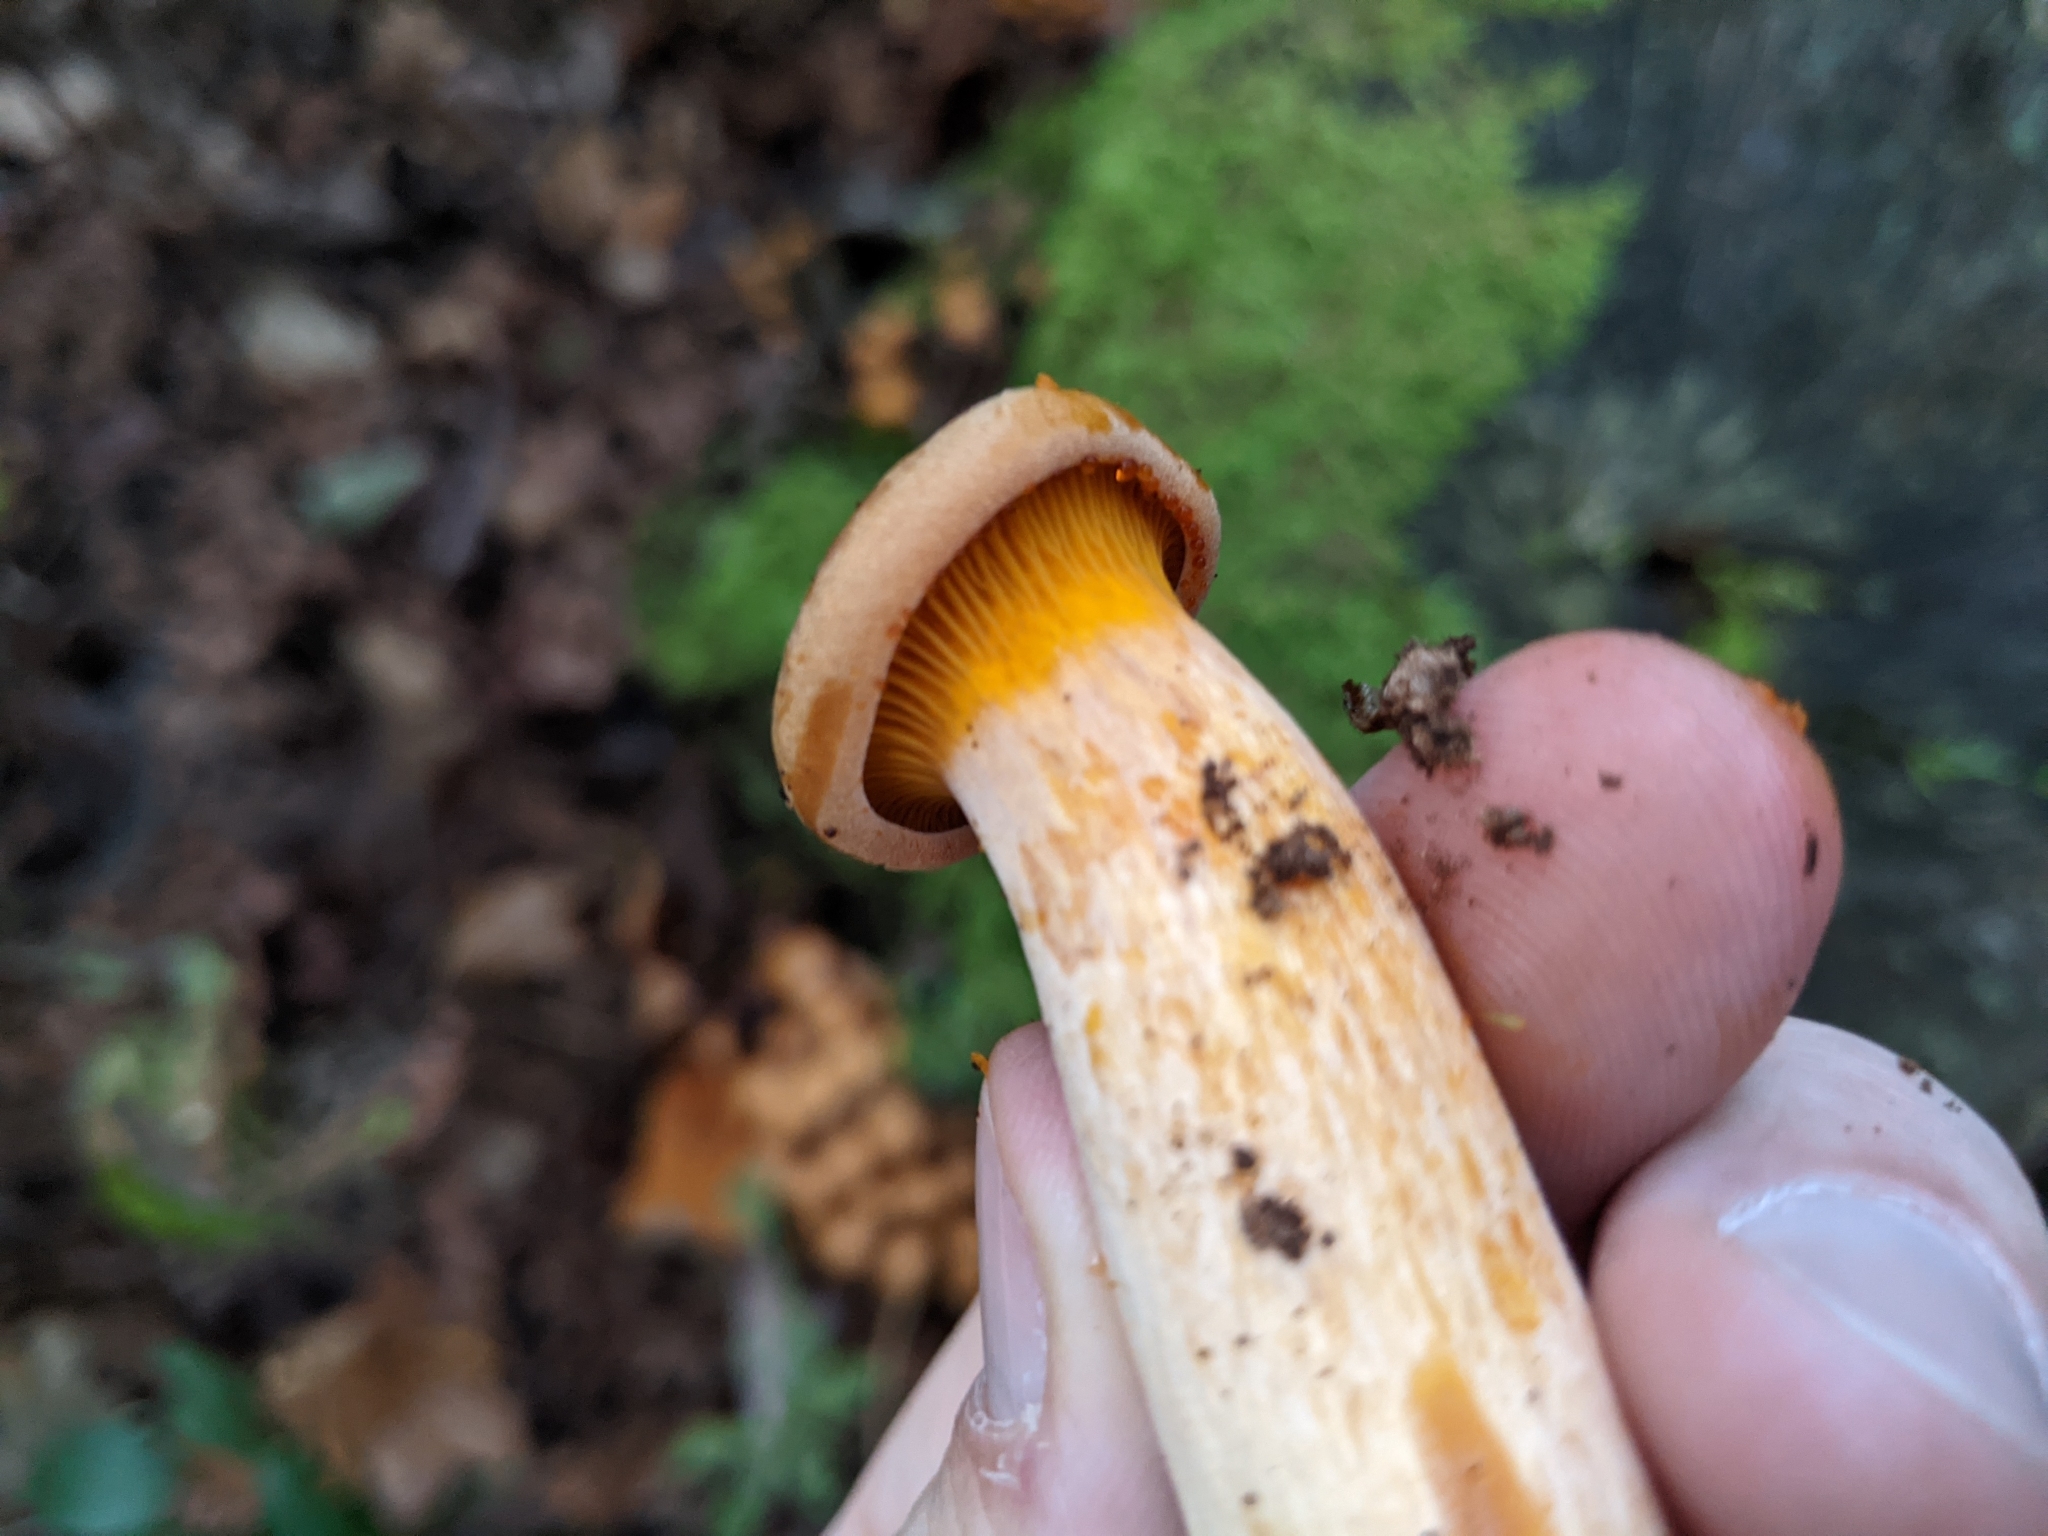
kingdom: Fungi
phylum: Basidiomycota
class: Agaricomycetes
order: Agaricales
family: Omphalotaceae
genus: Omphalotus
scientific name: Omphalotus illudens
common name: Jack o lantern
